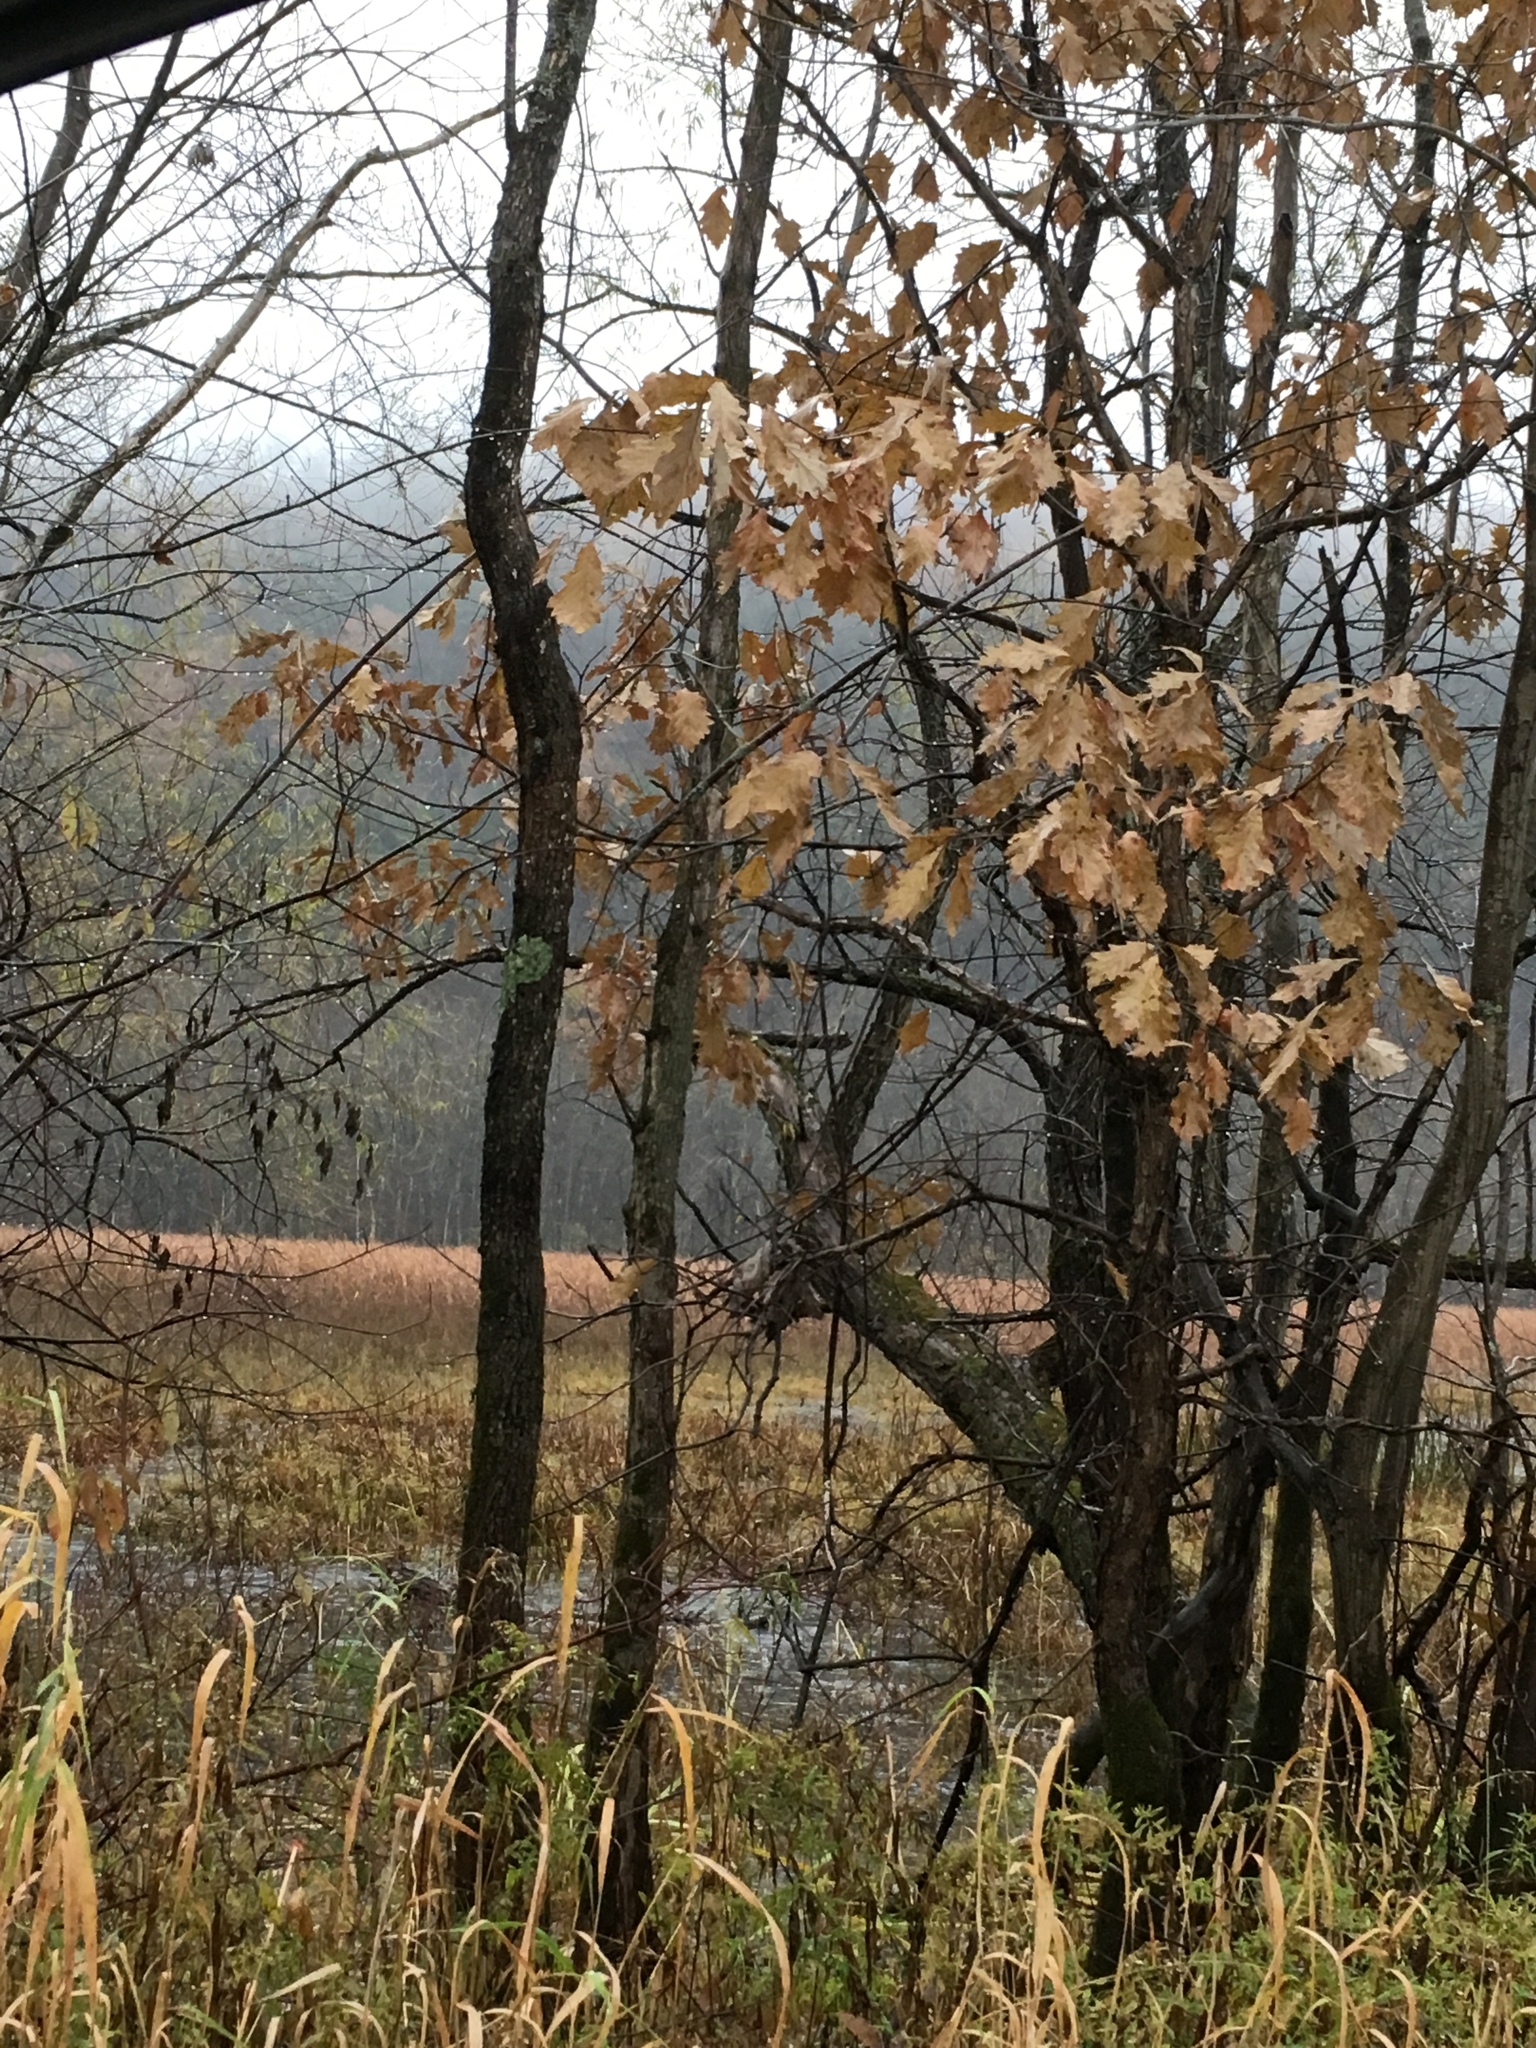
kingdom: Plantae
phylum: Tracheophyta
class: Magnoliopsida
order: Fagales
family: Fagaceae
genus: Quercus
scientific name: Quercus bicolor
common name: Swamp white oak
